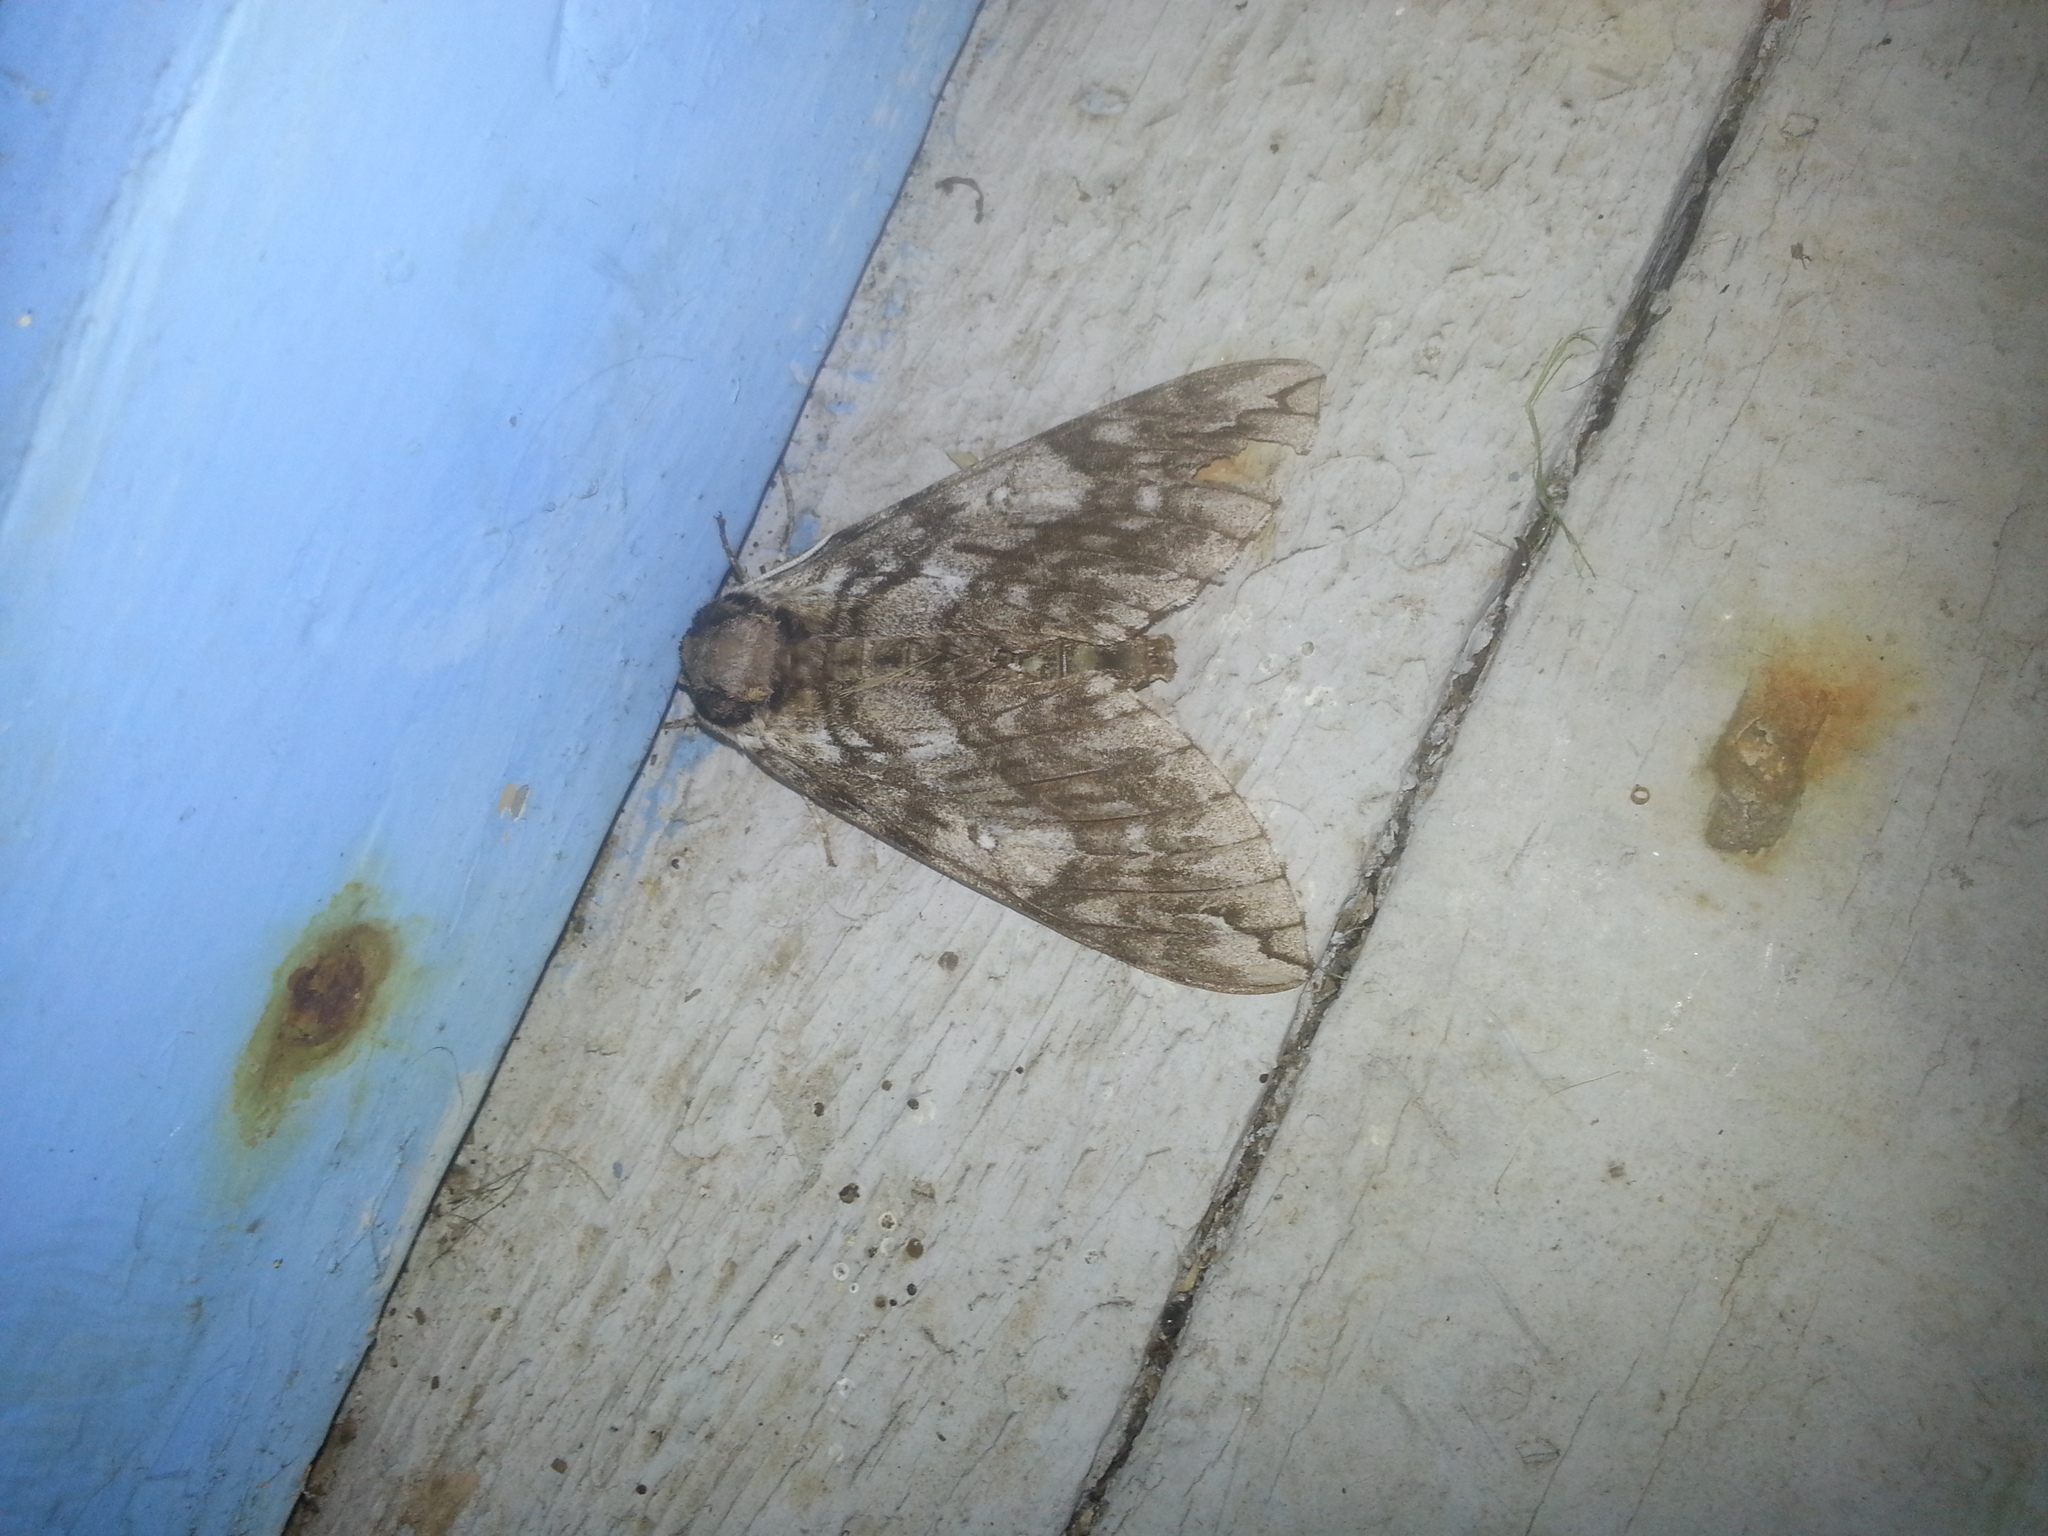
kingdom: Animalia
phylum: Arthropoda
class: Insecta
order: Lepidoptera
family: Sphingidae
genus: Ceratomia
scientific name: Ceratomia undulosa
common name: Waved sphinx
